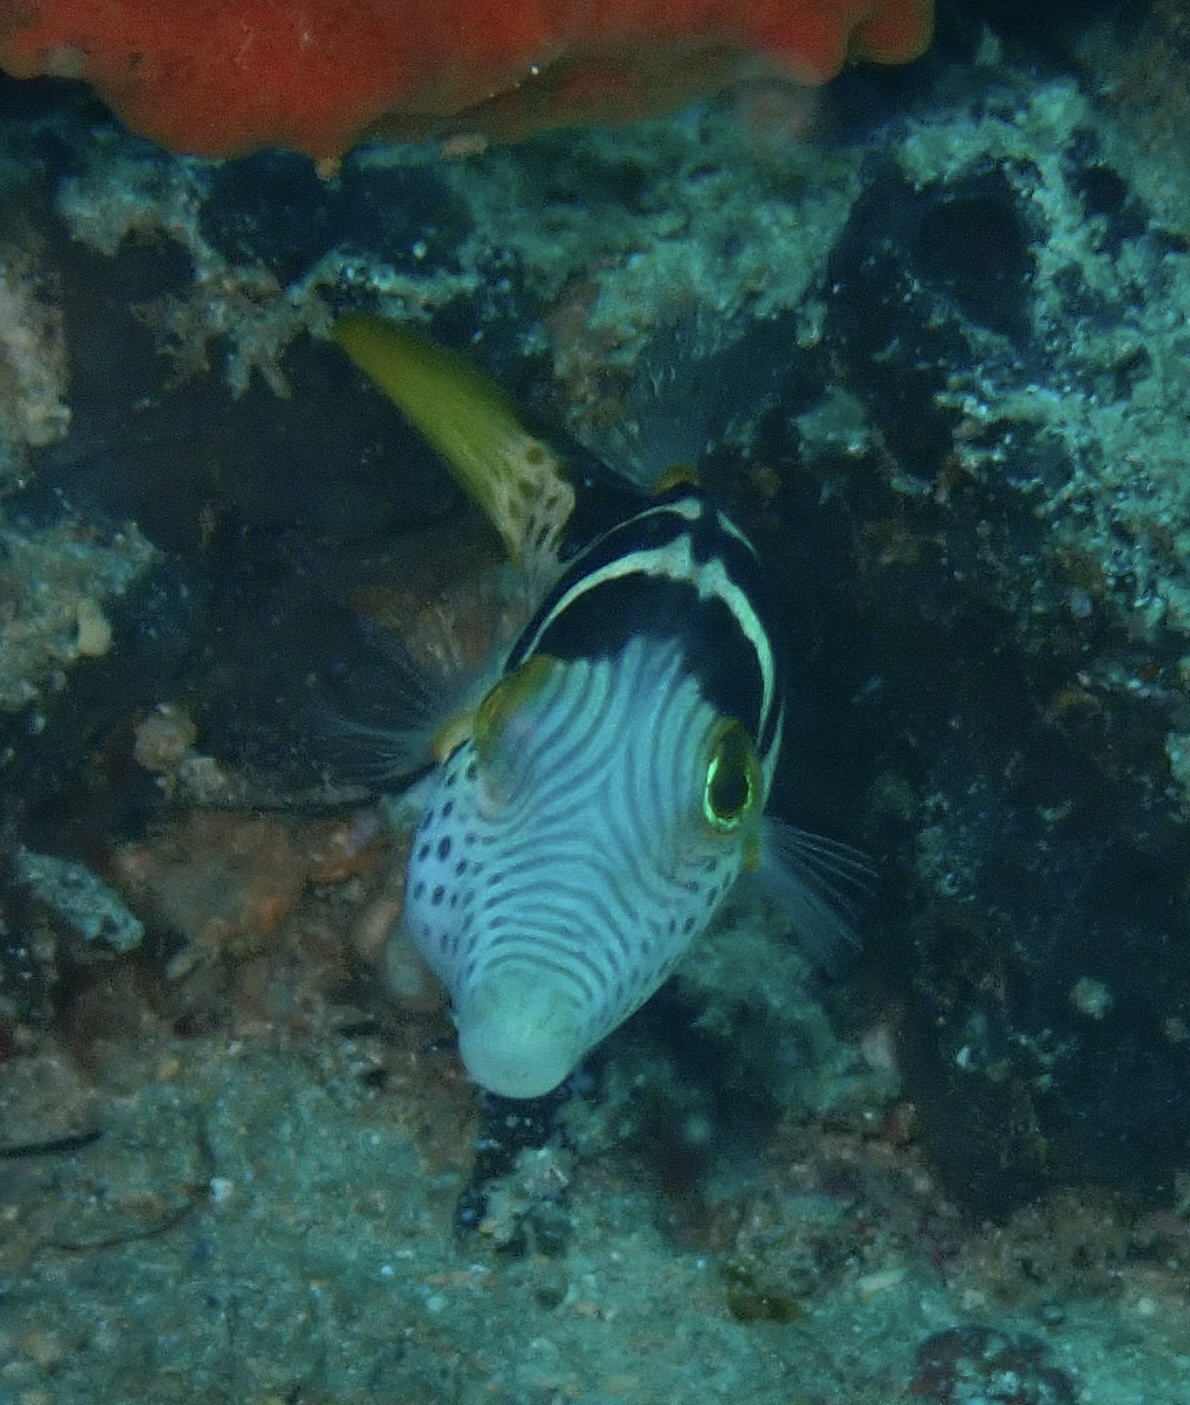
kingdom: Animalia
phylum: Chordata
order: Tetraodontiformes
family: Tetraodontidae
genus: Canthigaster
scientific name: Canthigaster valentini
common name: Banded toby
